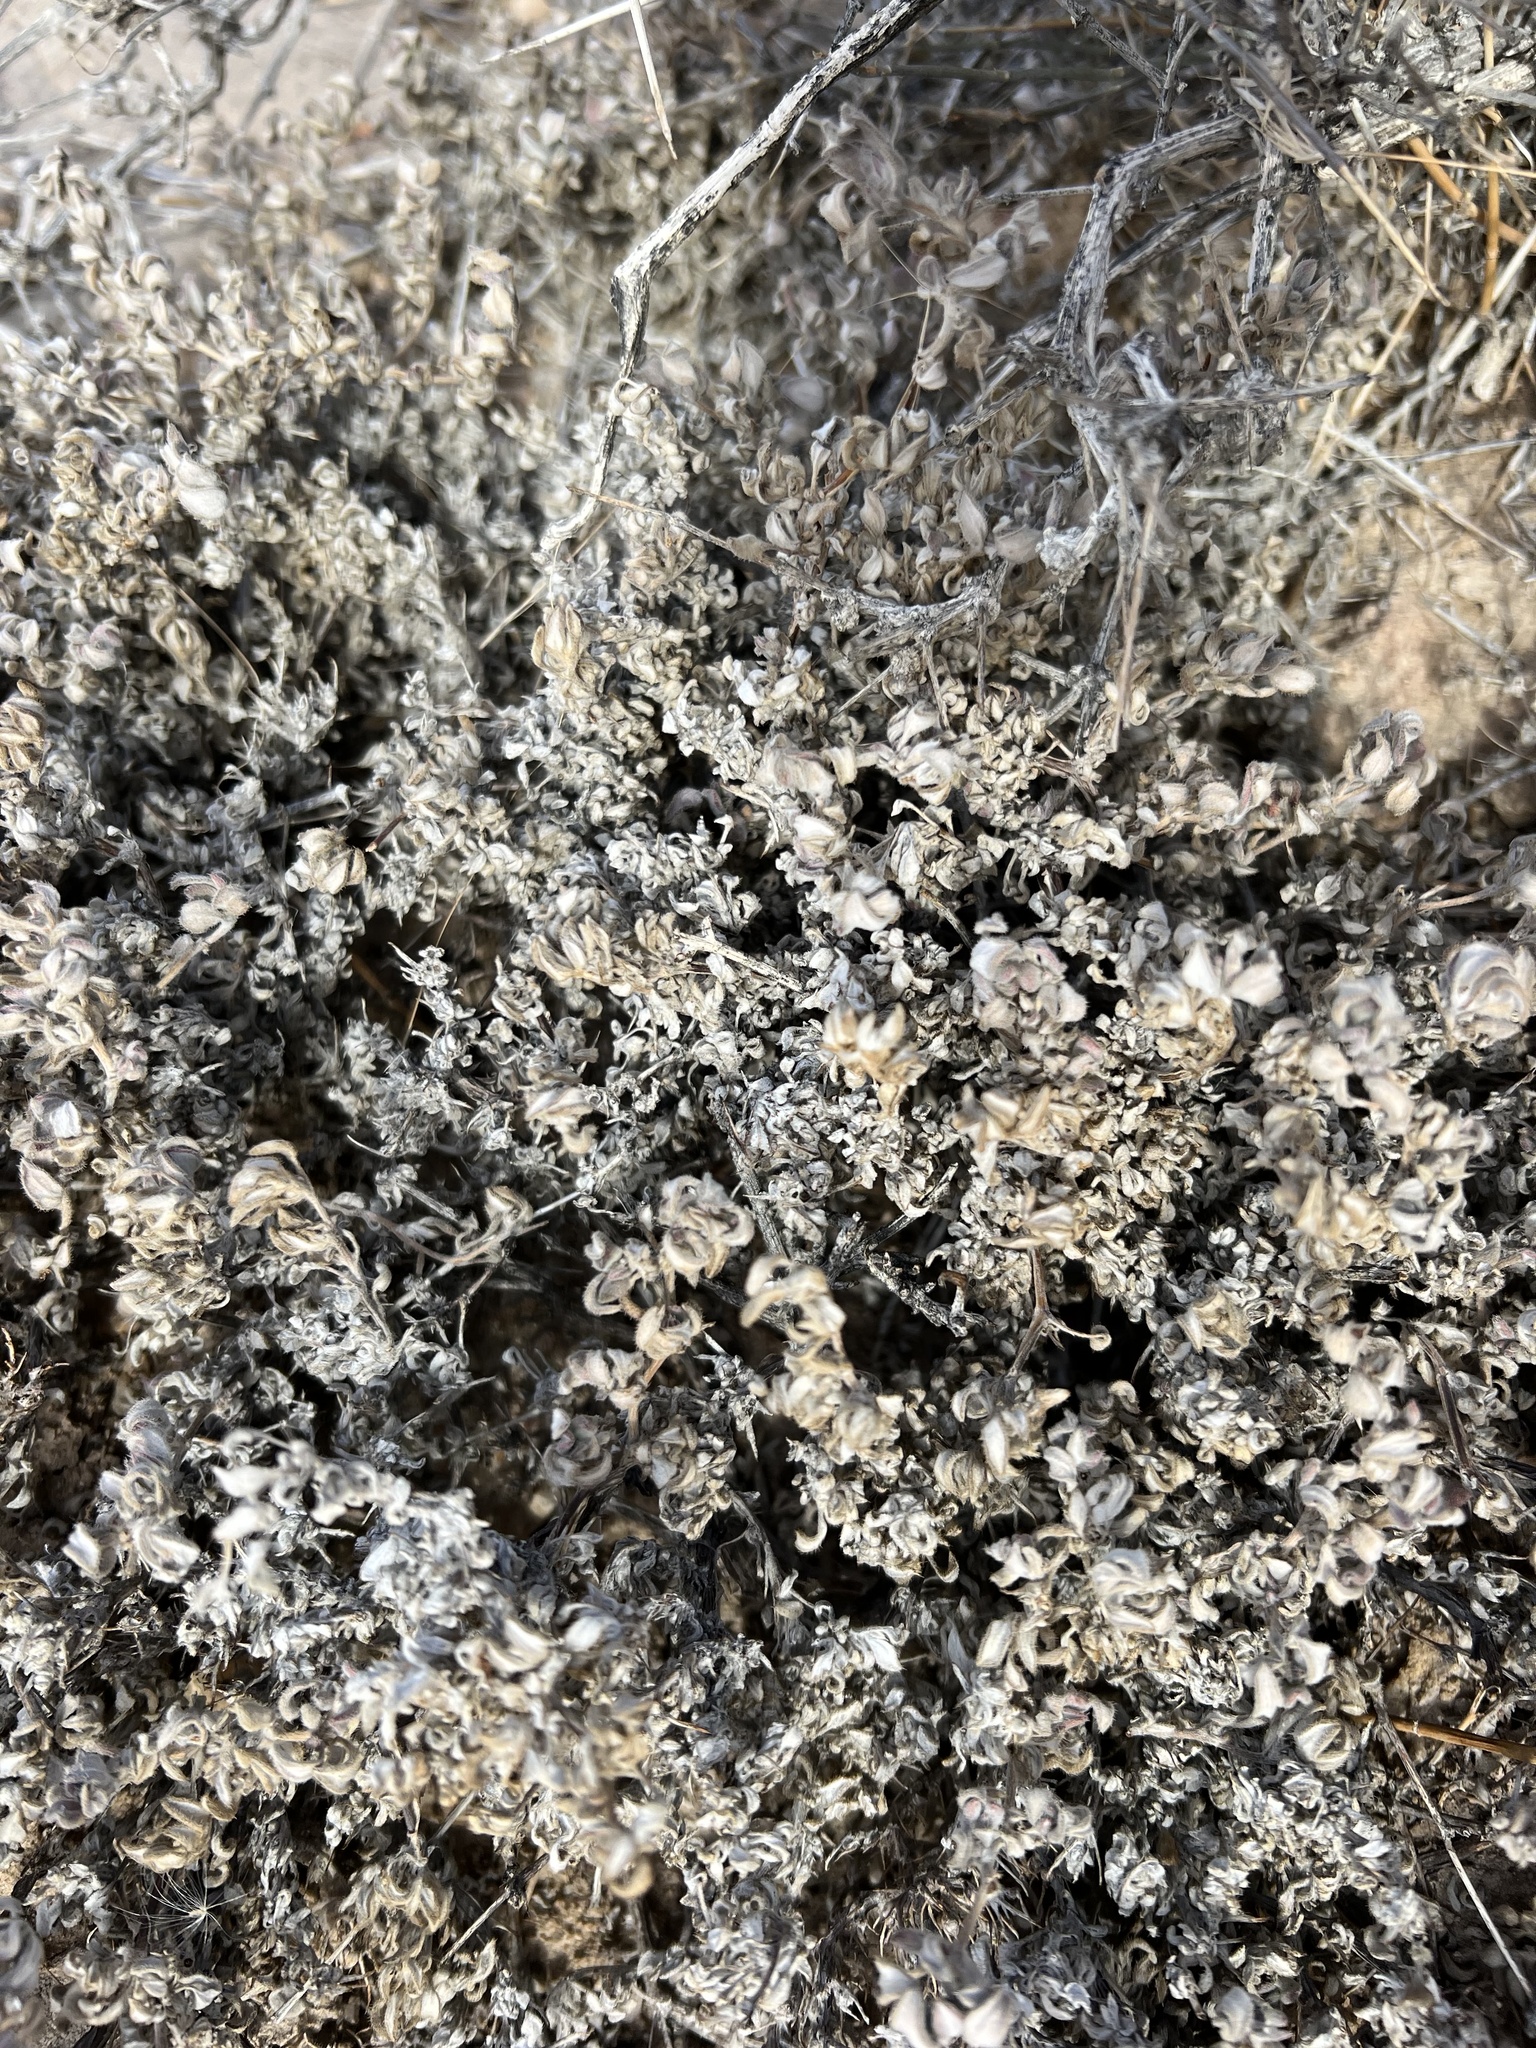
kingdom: Plantae
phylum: Tracheophyta
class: Magnoliopsida
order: Boraginales
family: Ehretiaceae
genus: Tiquilia
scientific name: Tiquilia canescens
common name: Hairy tiquilia
